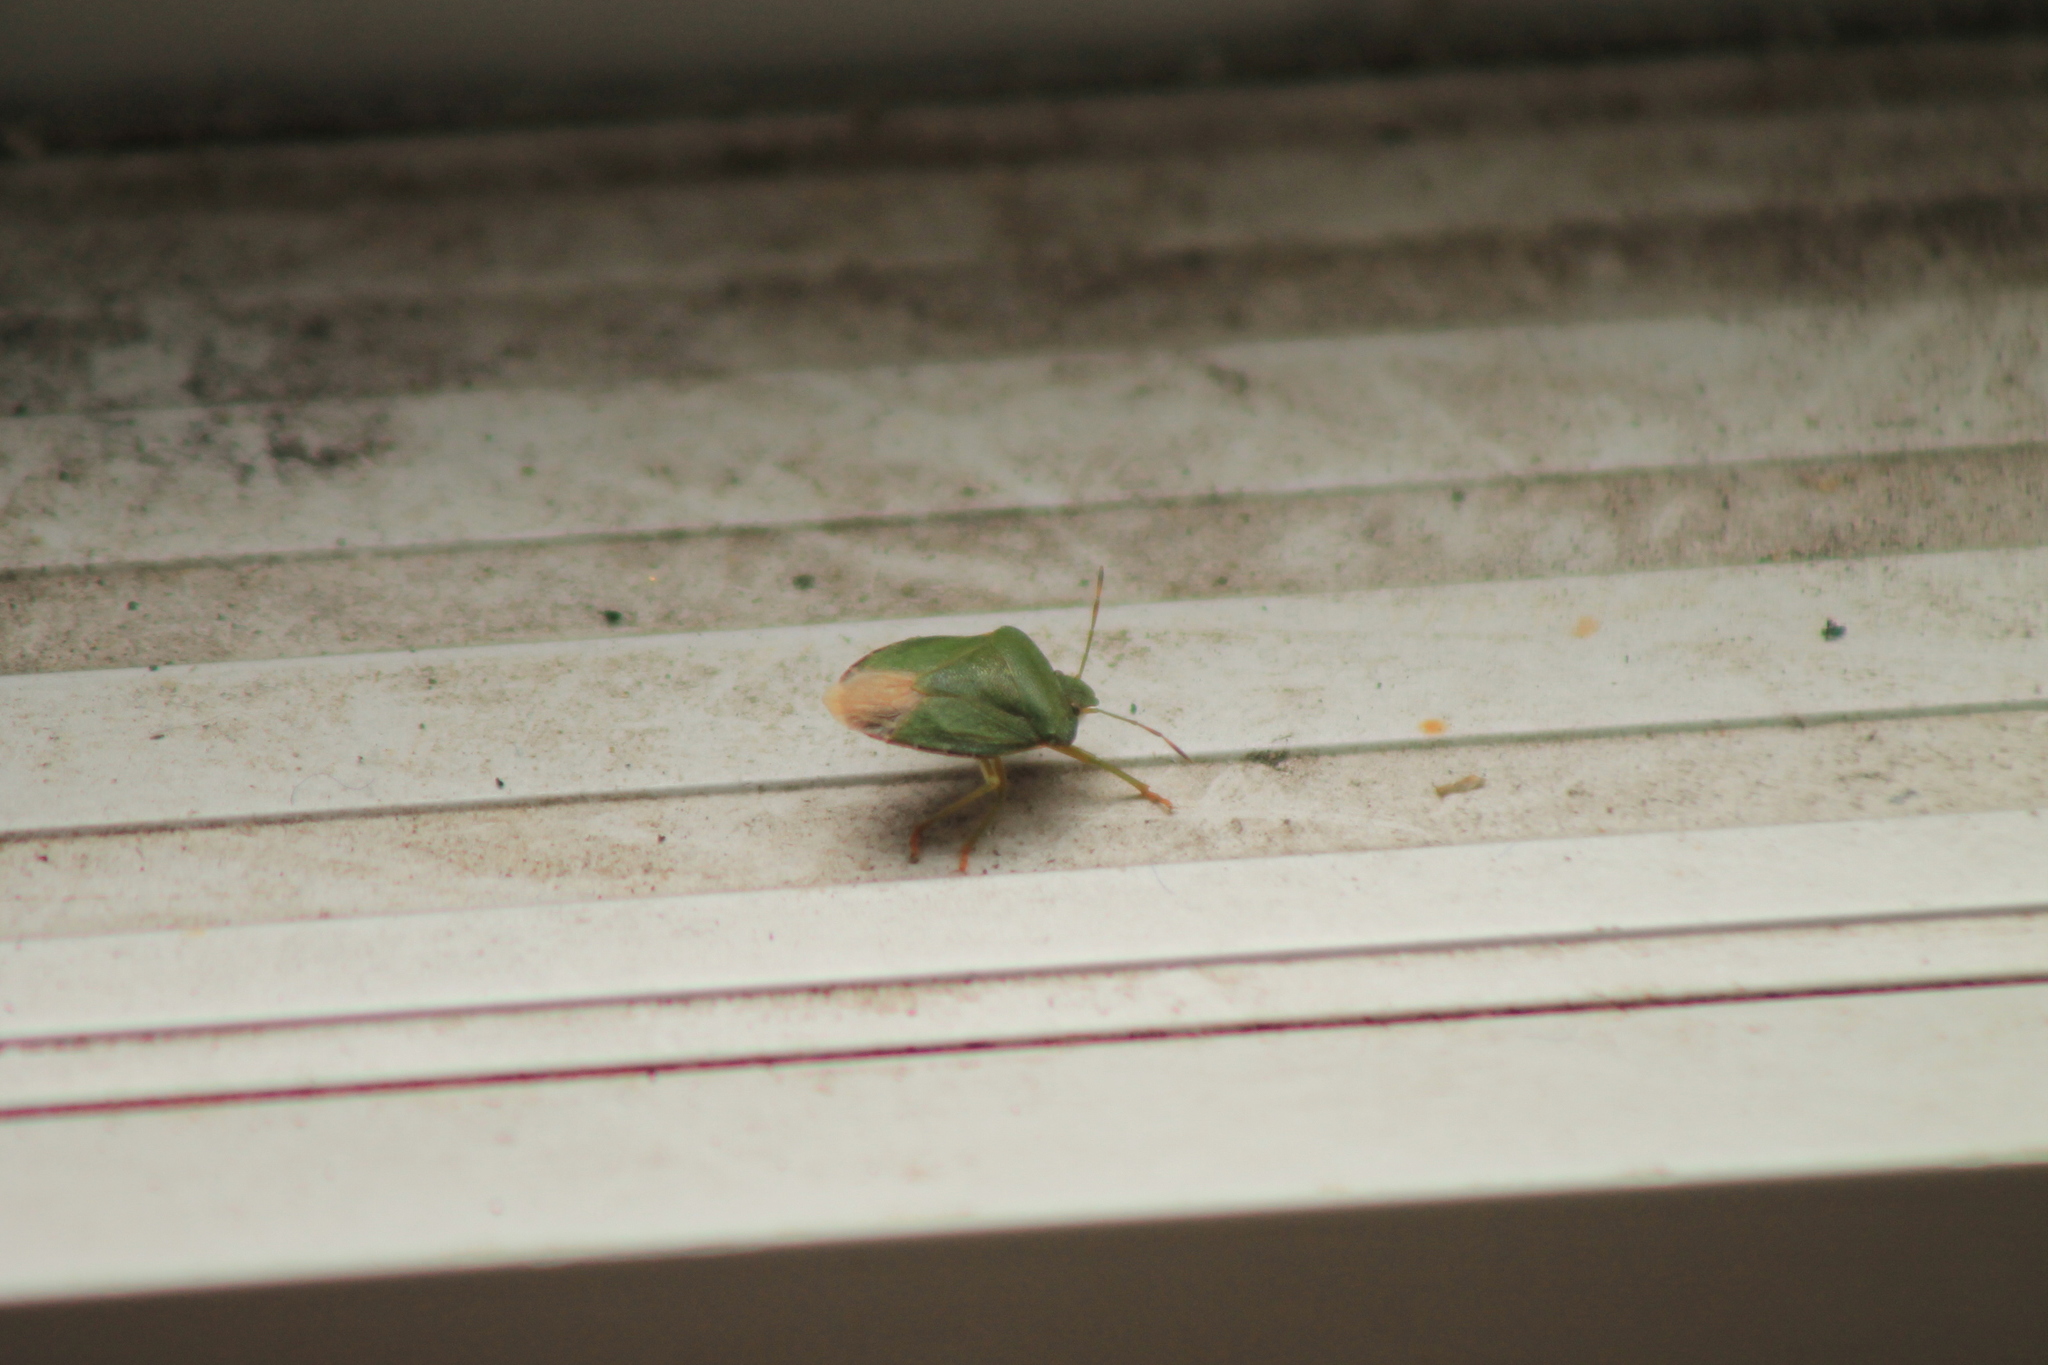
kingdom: Animalia
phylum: Arthropoda
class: Insecta
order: Hemiptera
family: Pentatomidae
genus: Palomena
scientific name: Palomena prasina
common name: Green shieldbug
